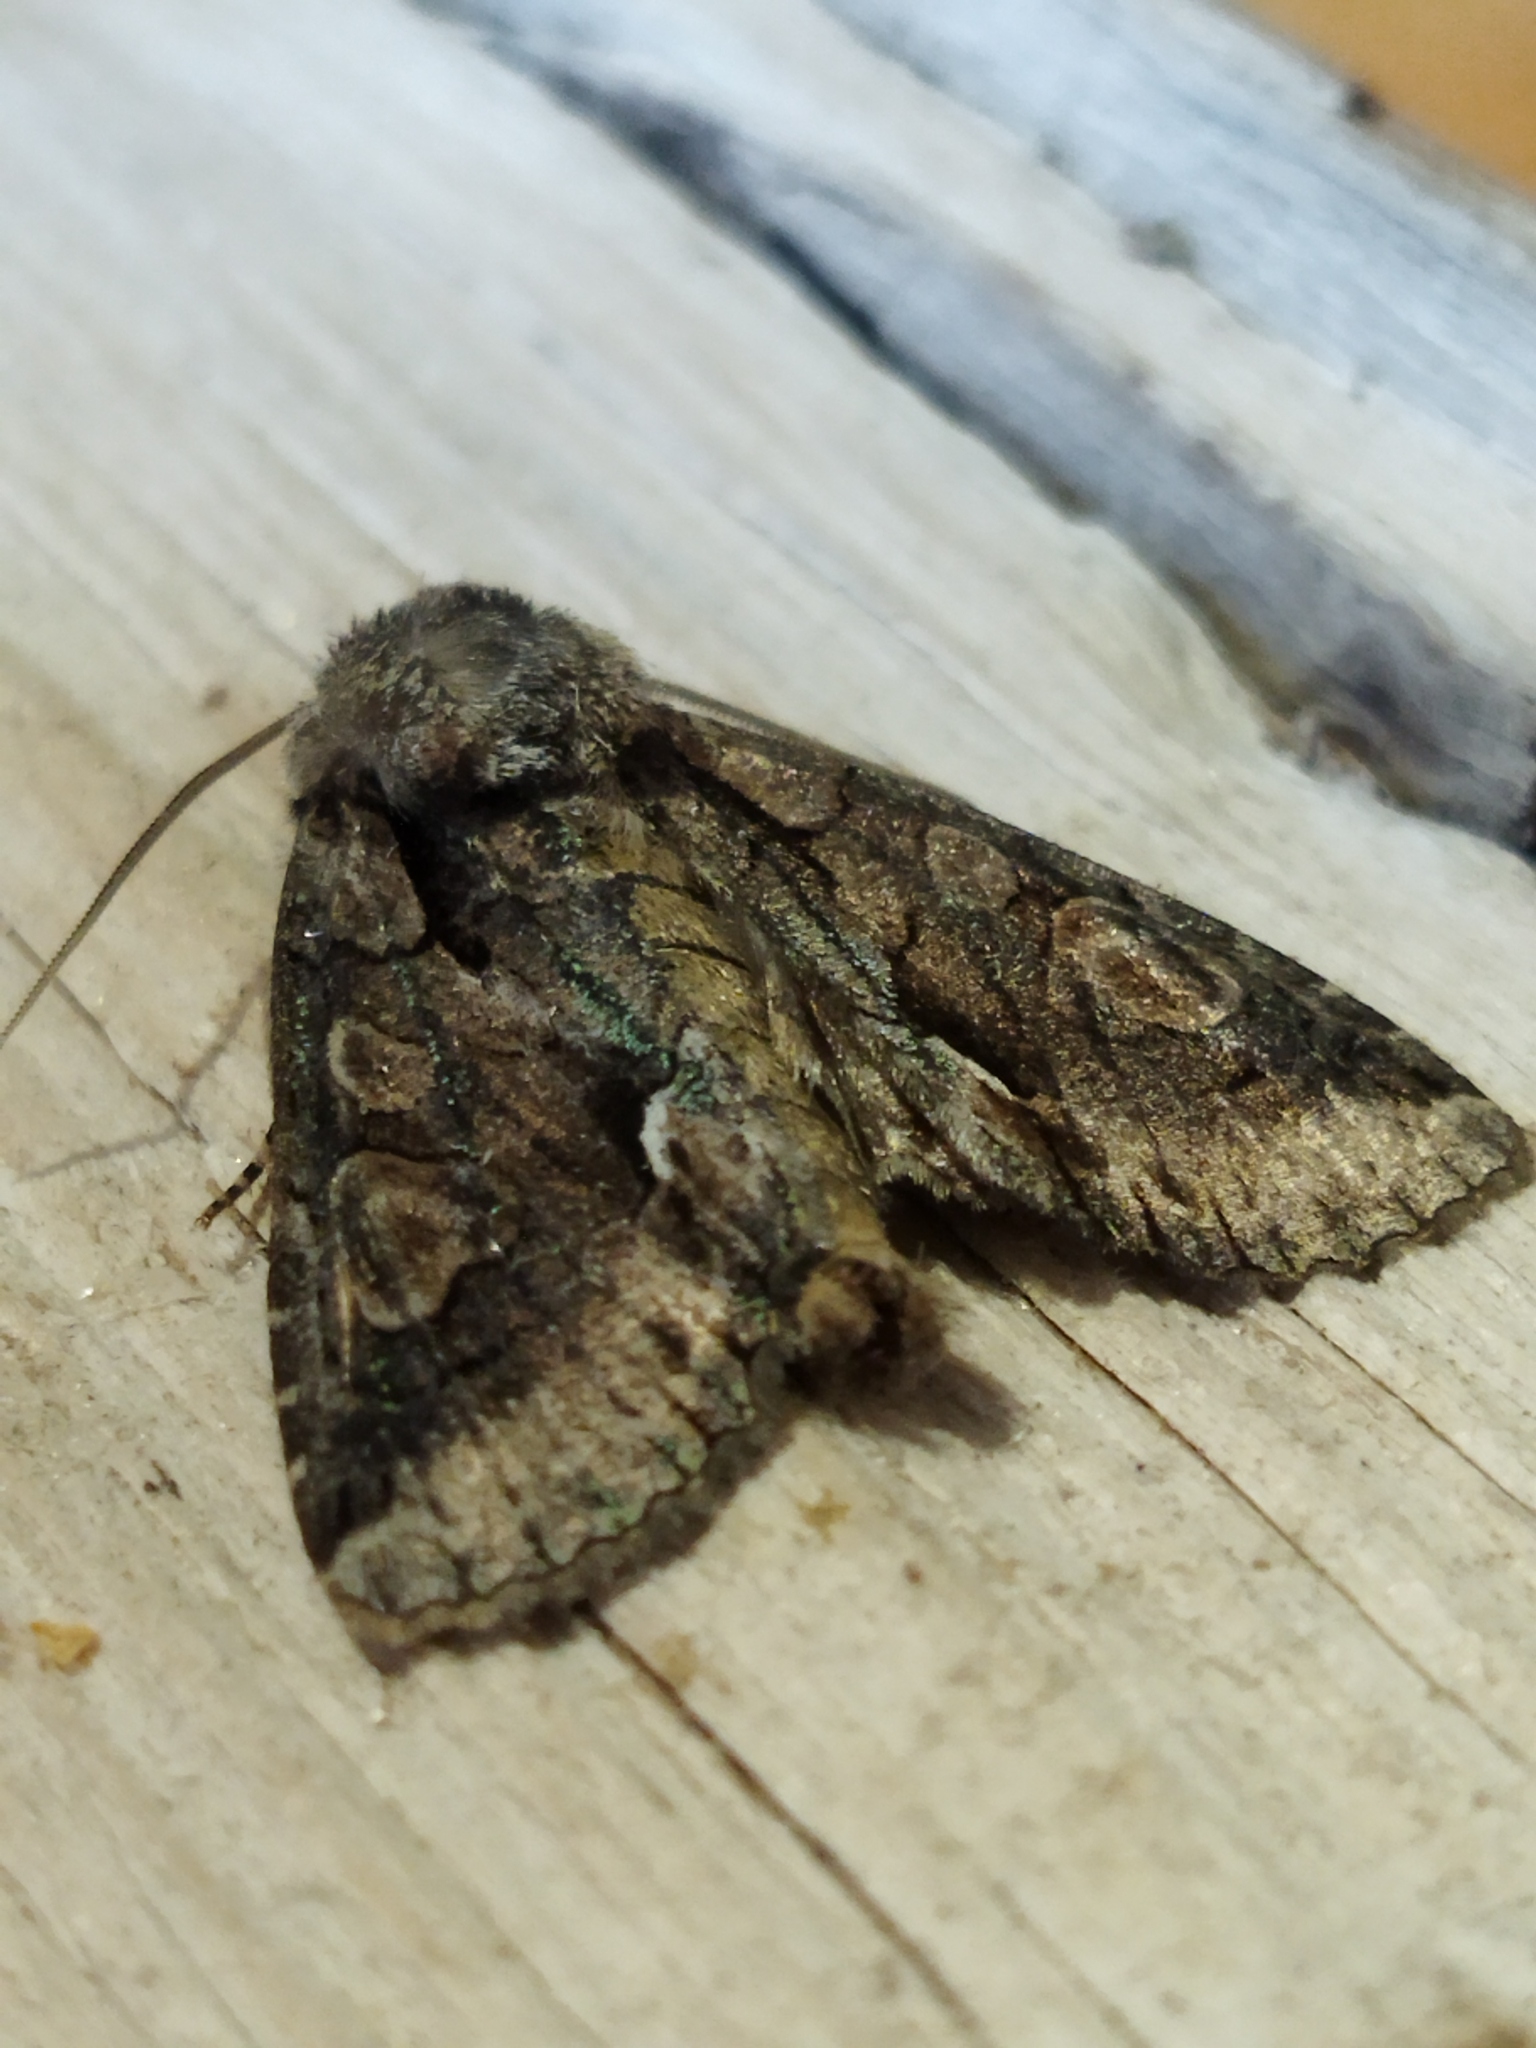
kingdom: Animalia
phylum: Arthropoda
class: Insecta
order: Lepidoptera
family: Noctuidae
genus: Allophyes
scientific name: Allophyes oxyacanthae
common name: Green-brindled crescent
